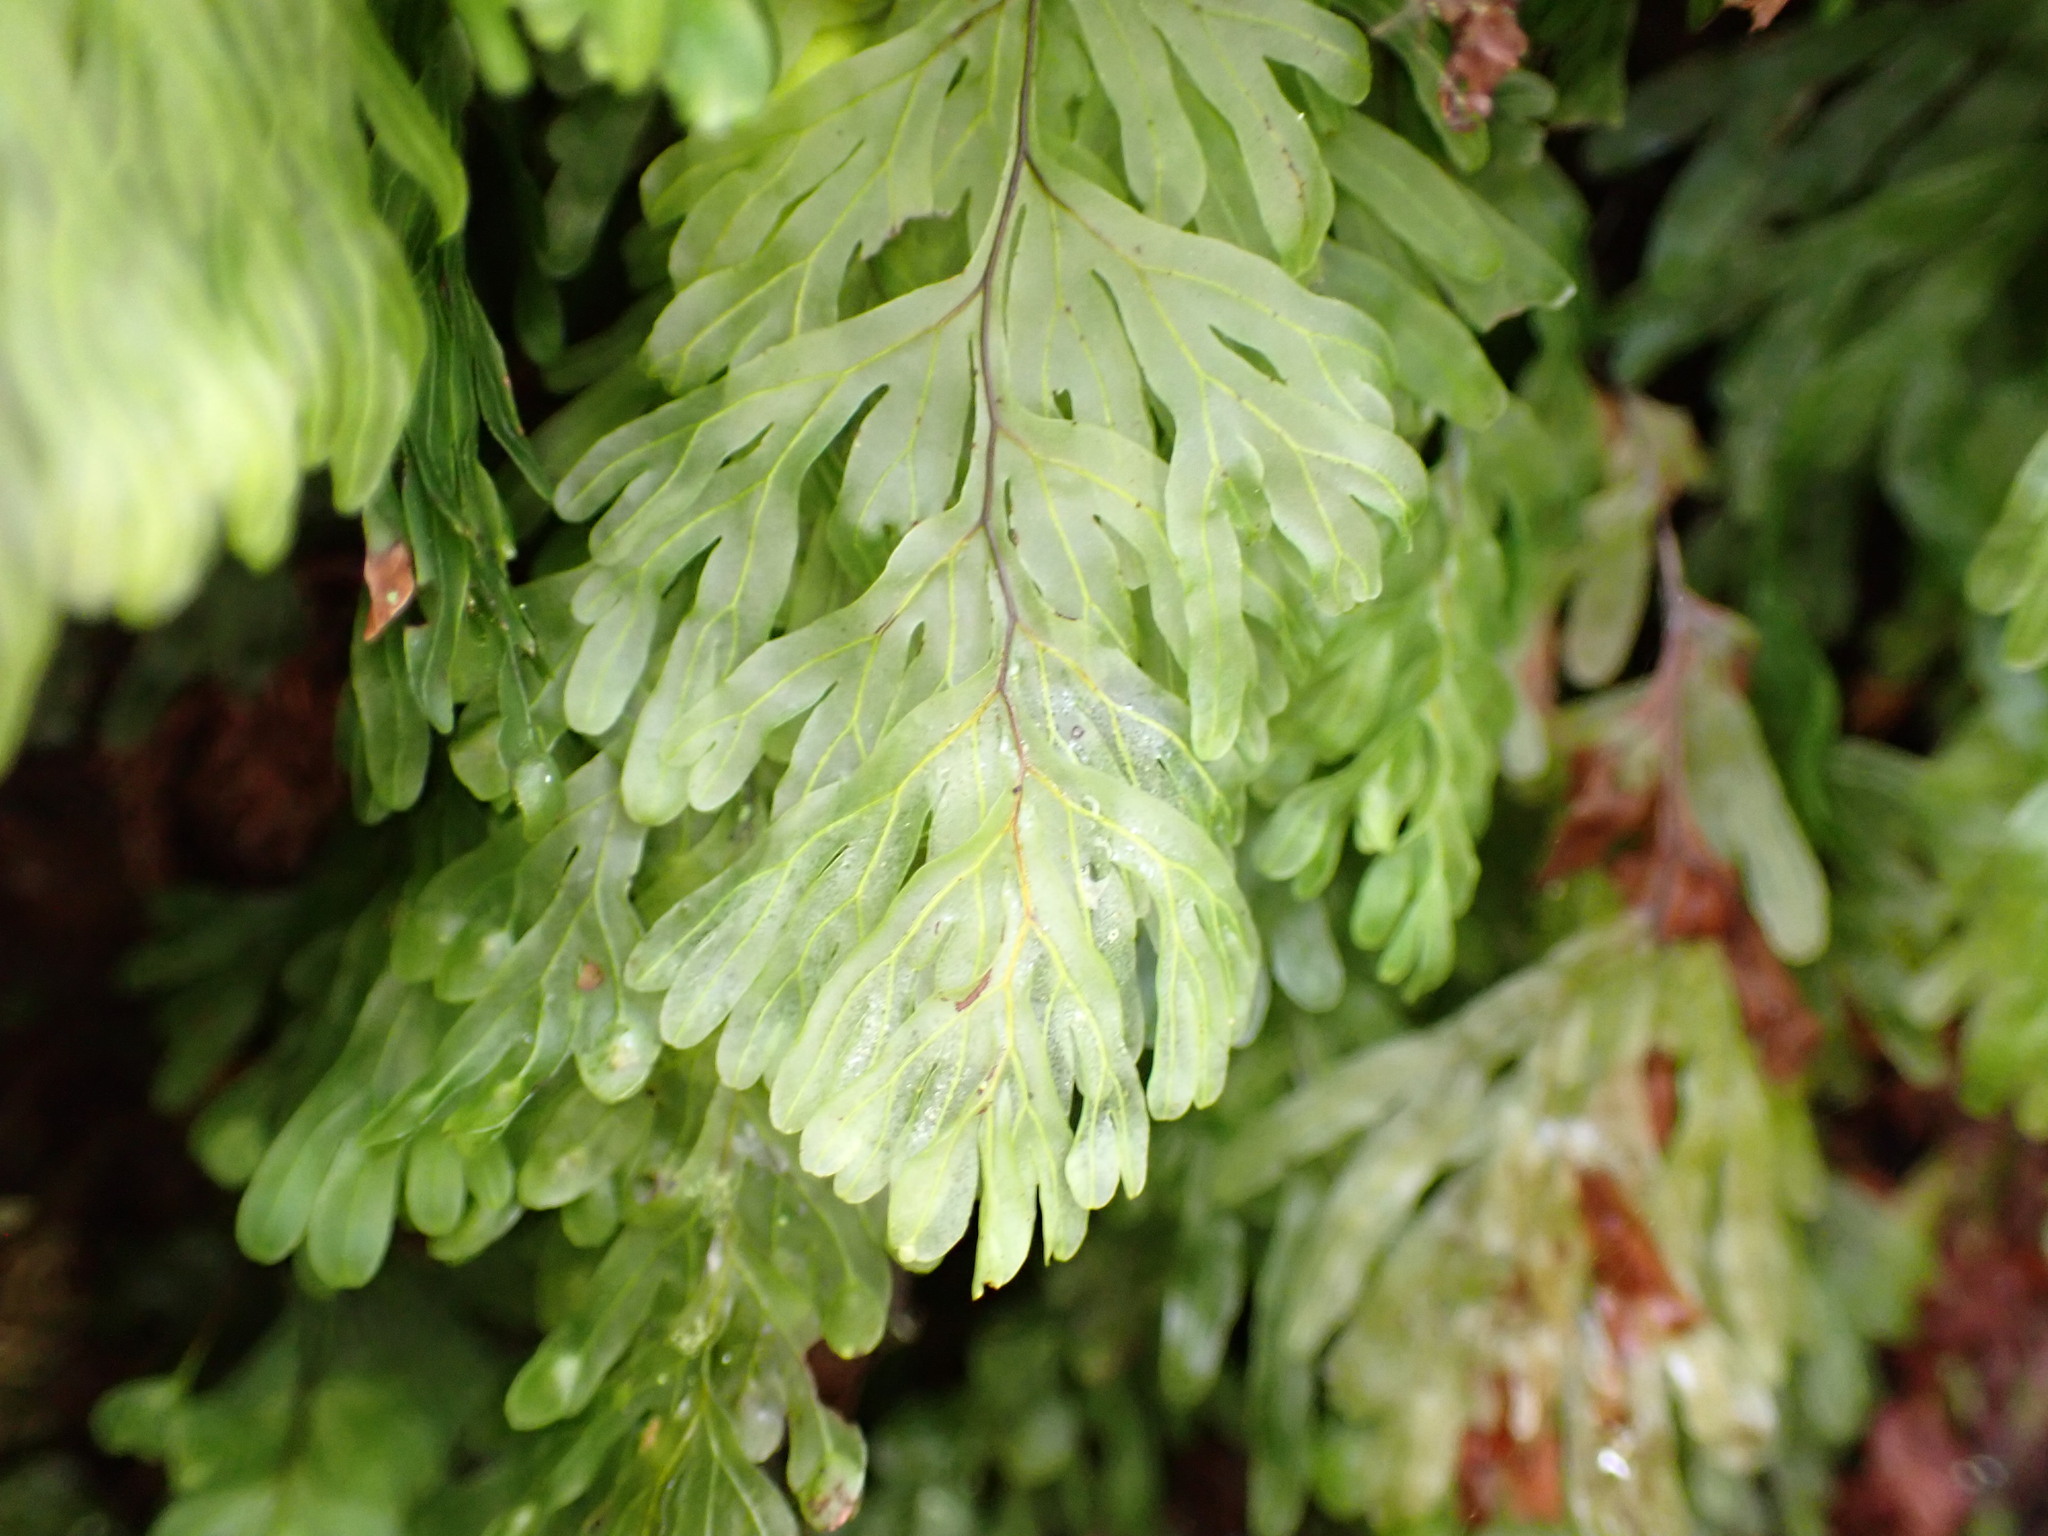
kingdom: Plantae
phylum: Tracheophyta
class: Polypodiopsida
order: Hymenophyllales
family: Hymenophyllaceae
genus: Hymenophyllum
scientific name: Hymenophyllum rarum
